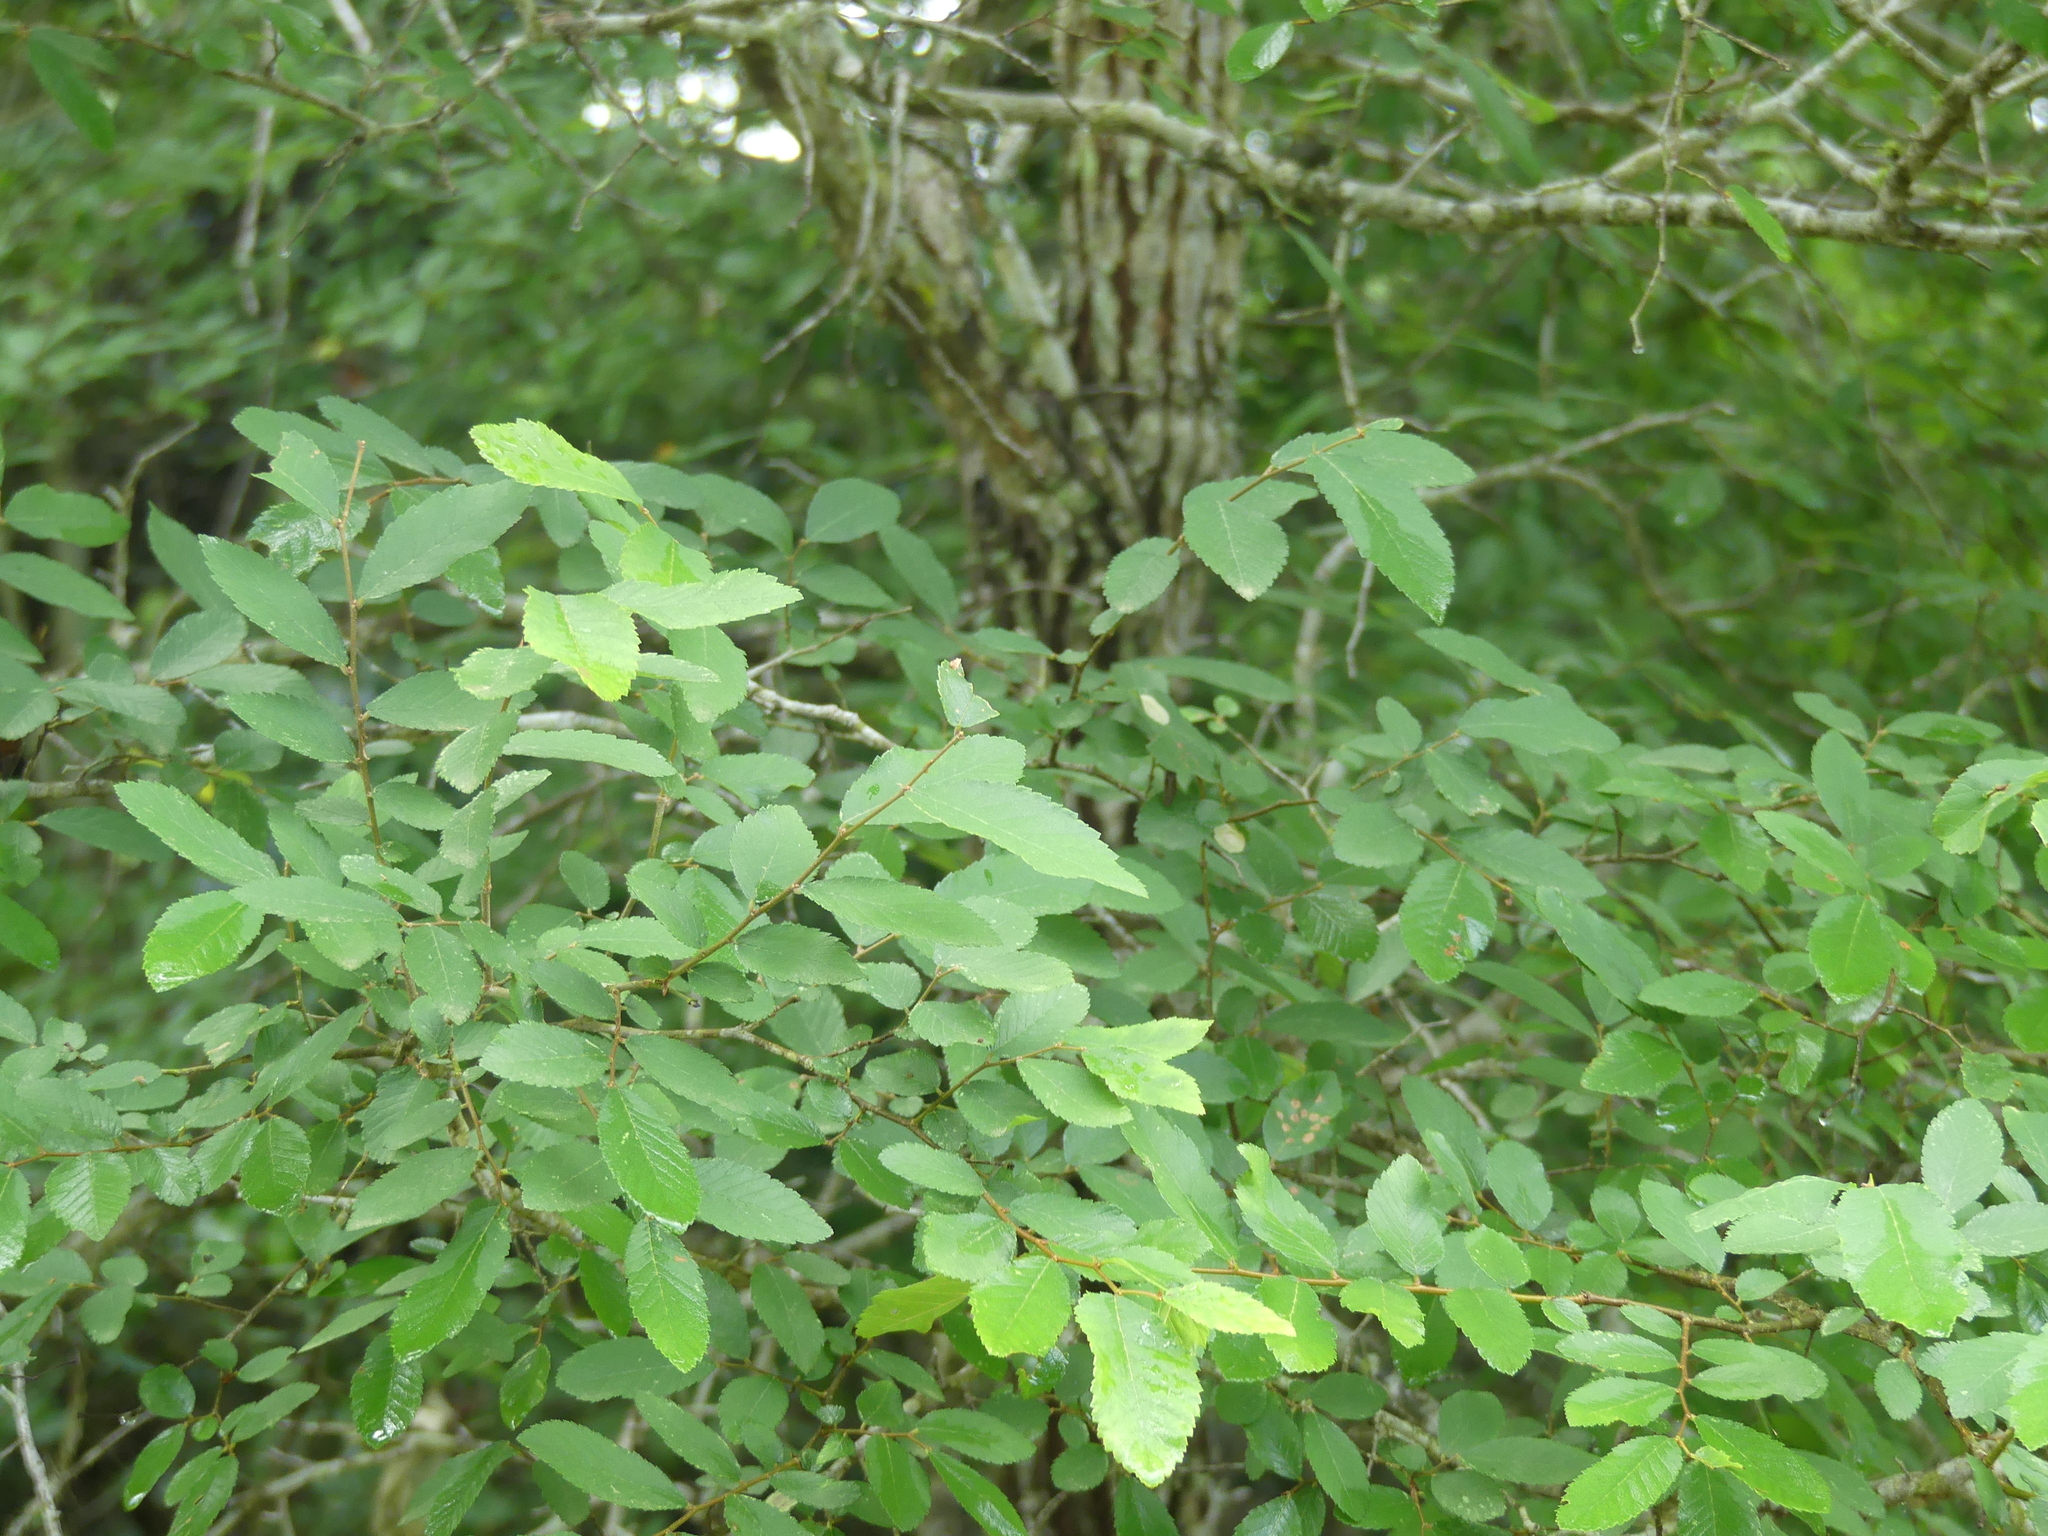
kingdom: Plantae
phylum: Tracheophyta
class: Magnoliopsida
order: Rosales
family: Ulmaceae
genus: Ulmus
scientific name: Ulmus crassifolia
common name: Basket elm
